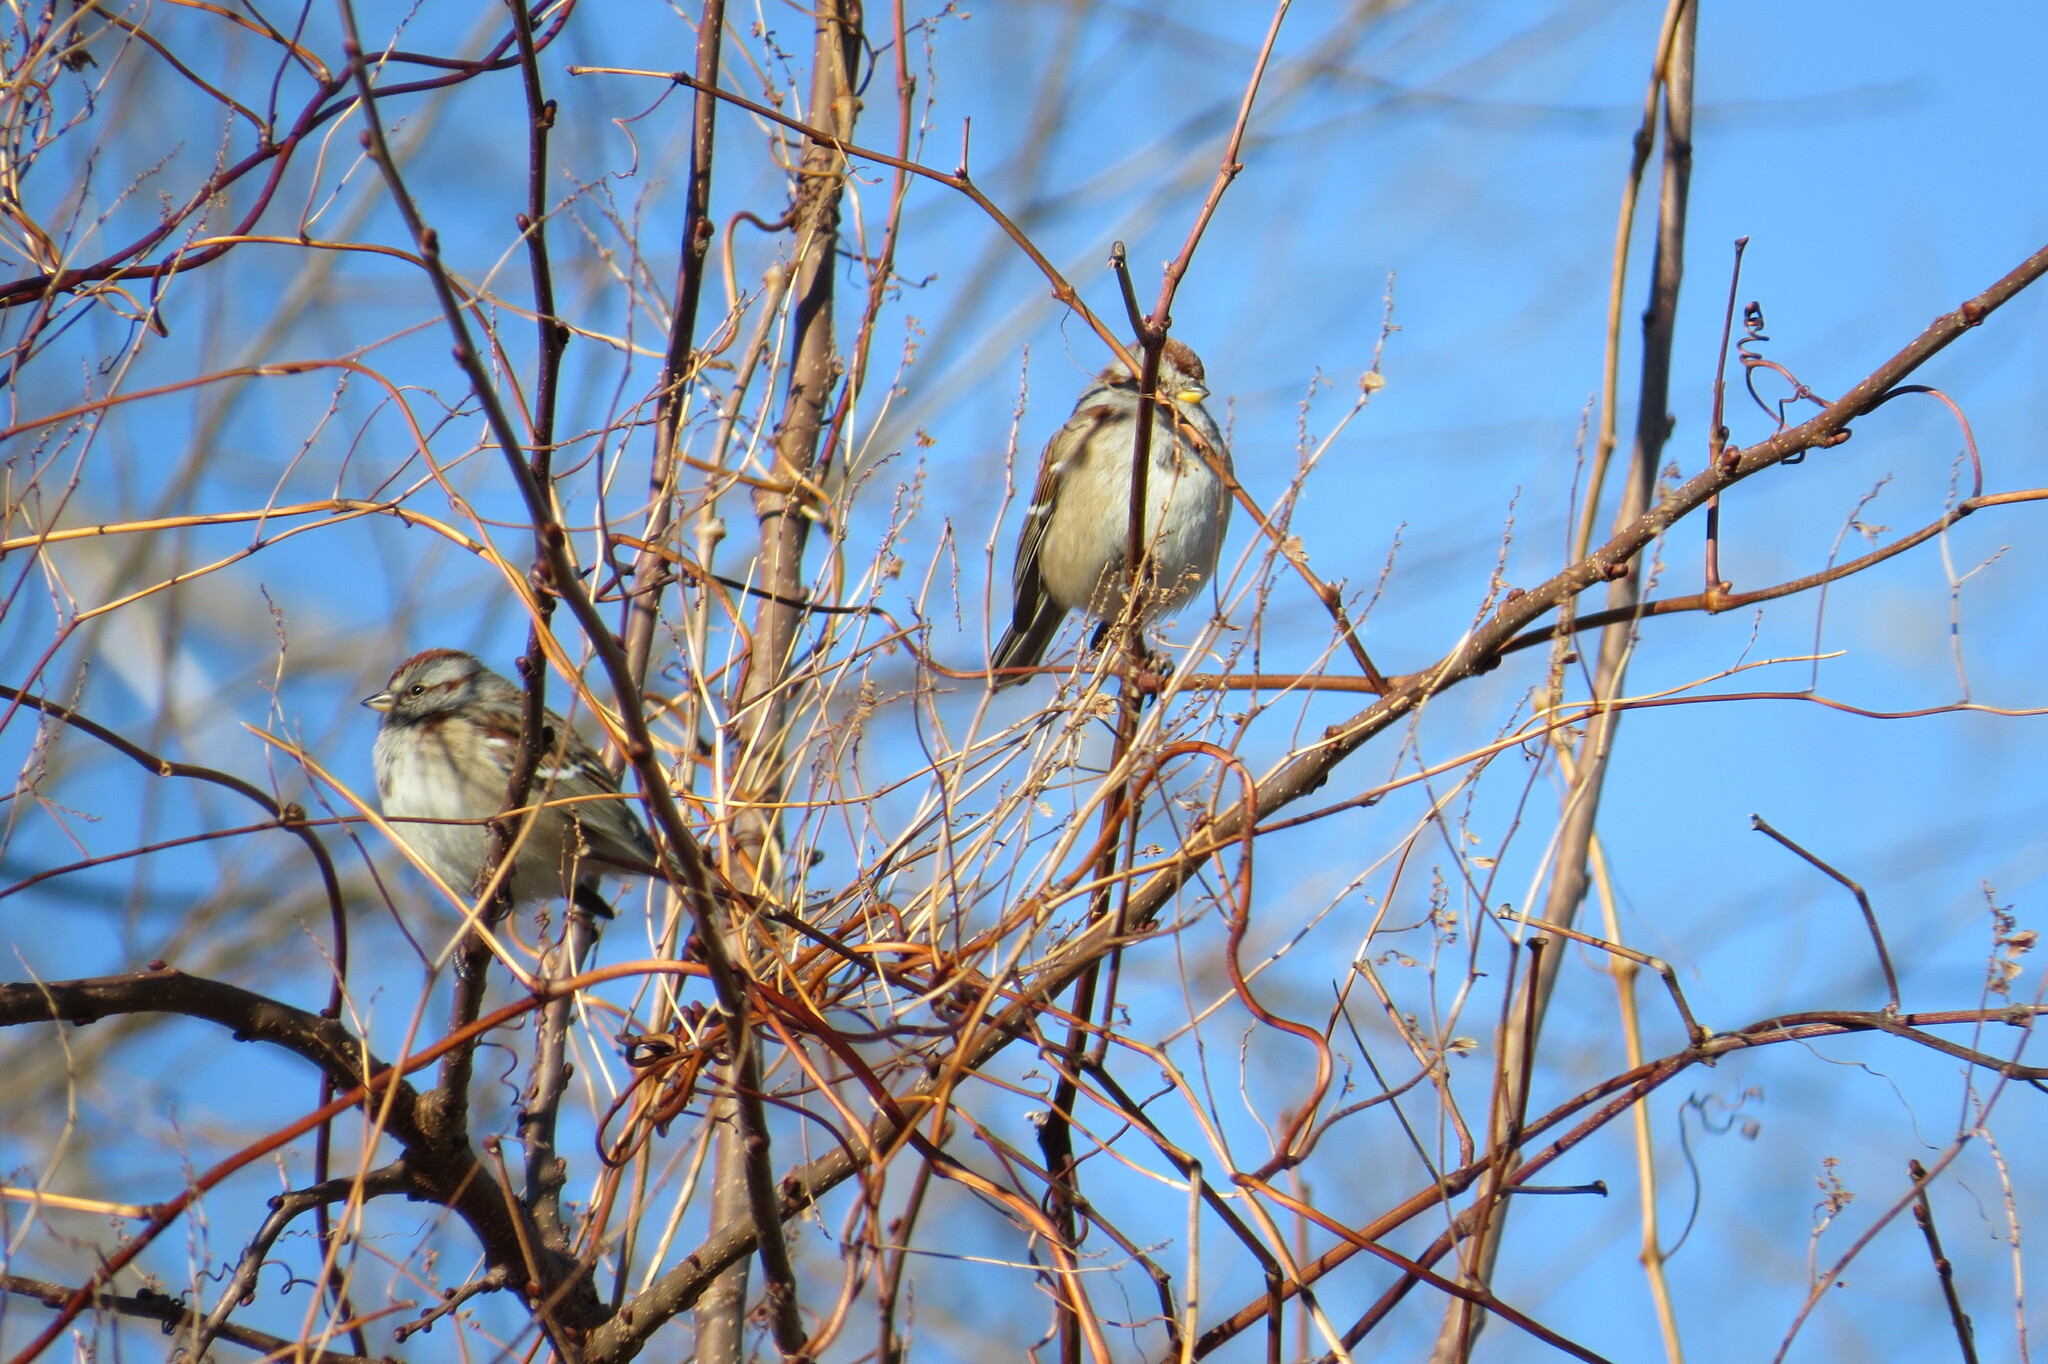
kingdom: Animalia
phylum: Chordata
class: Aves
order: Passeriformes
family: Passerellidae
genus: Spizelloides
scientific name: Spizelloides arborea
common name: American tree sparrow
